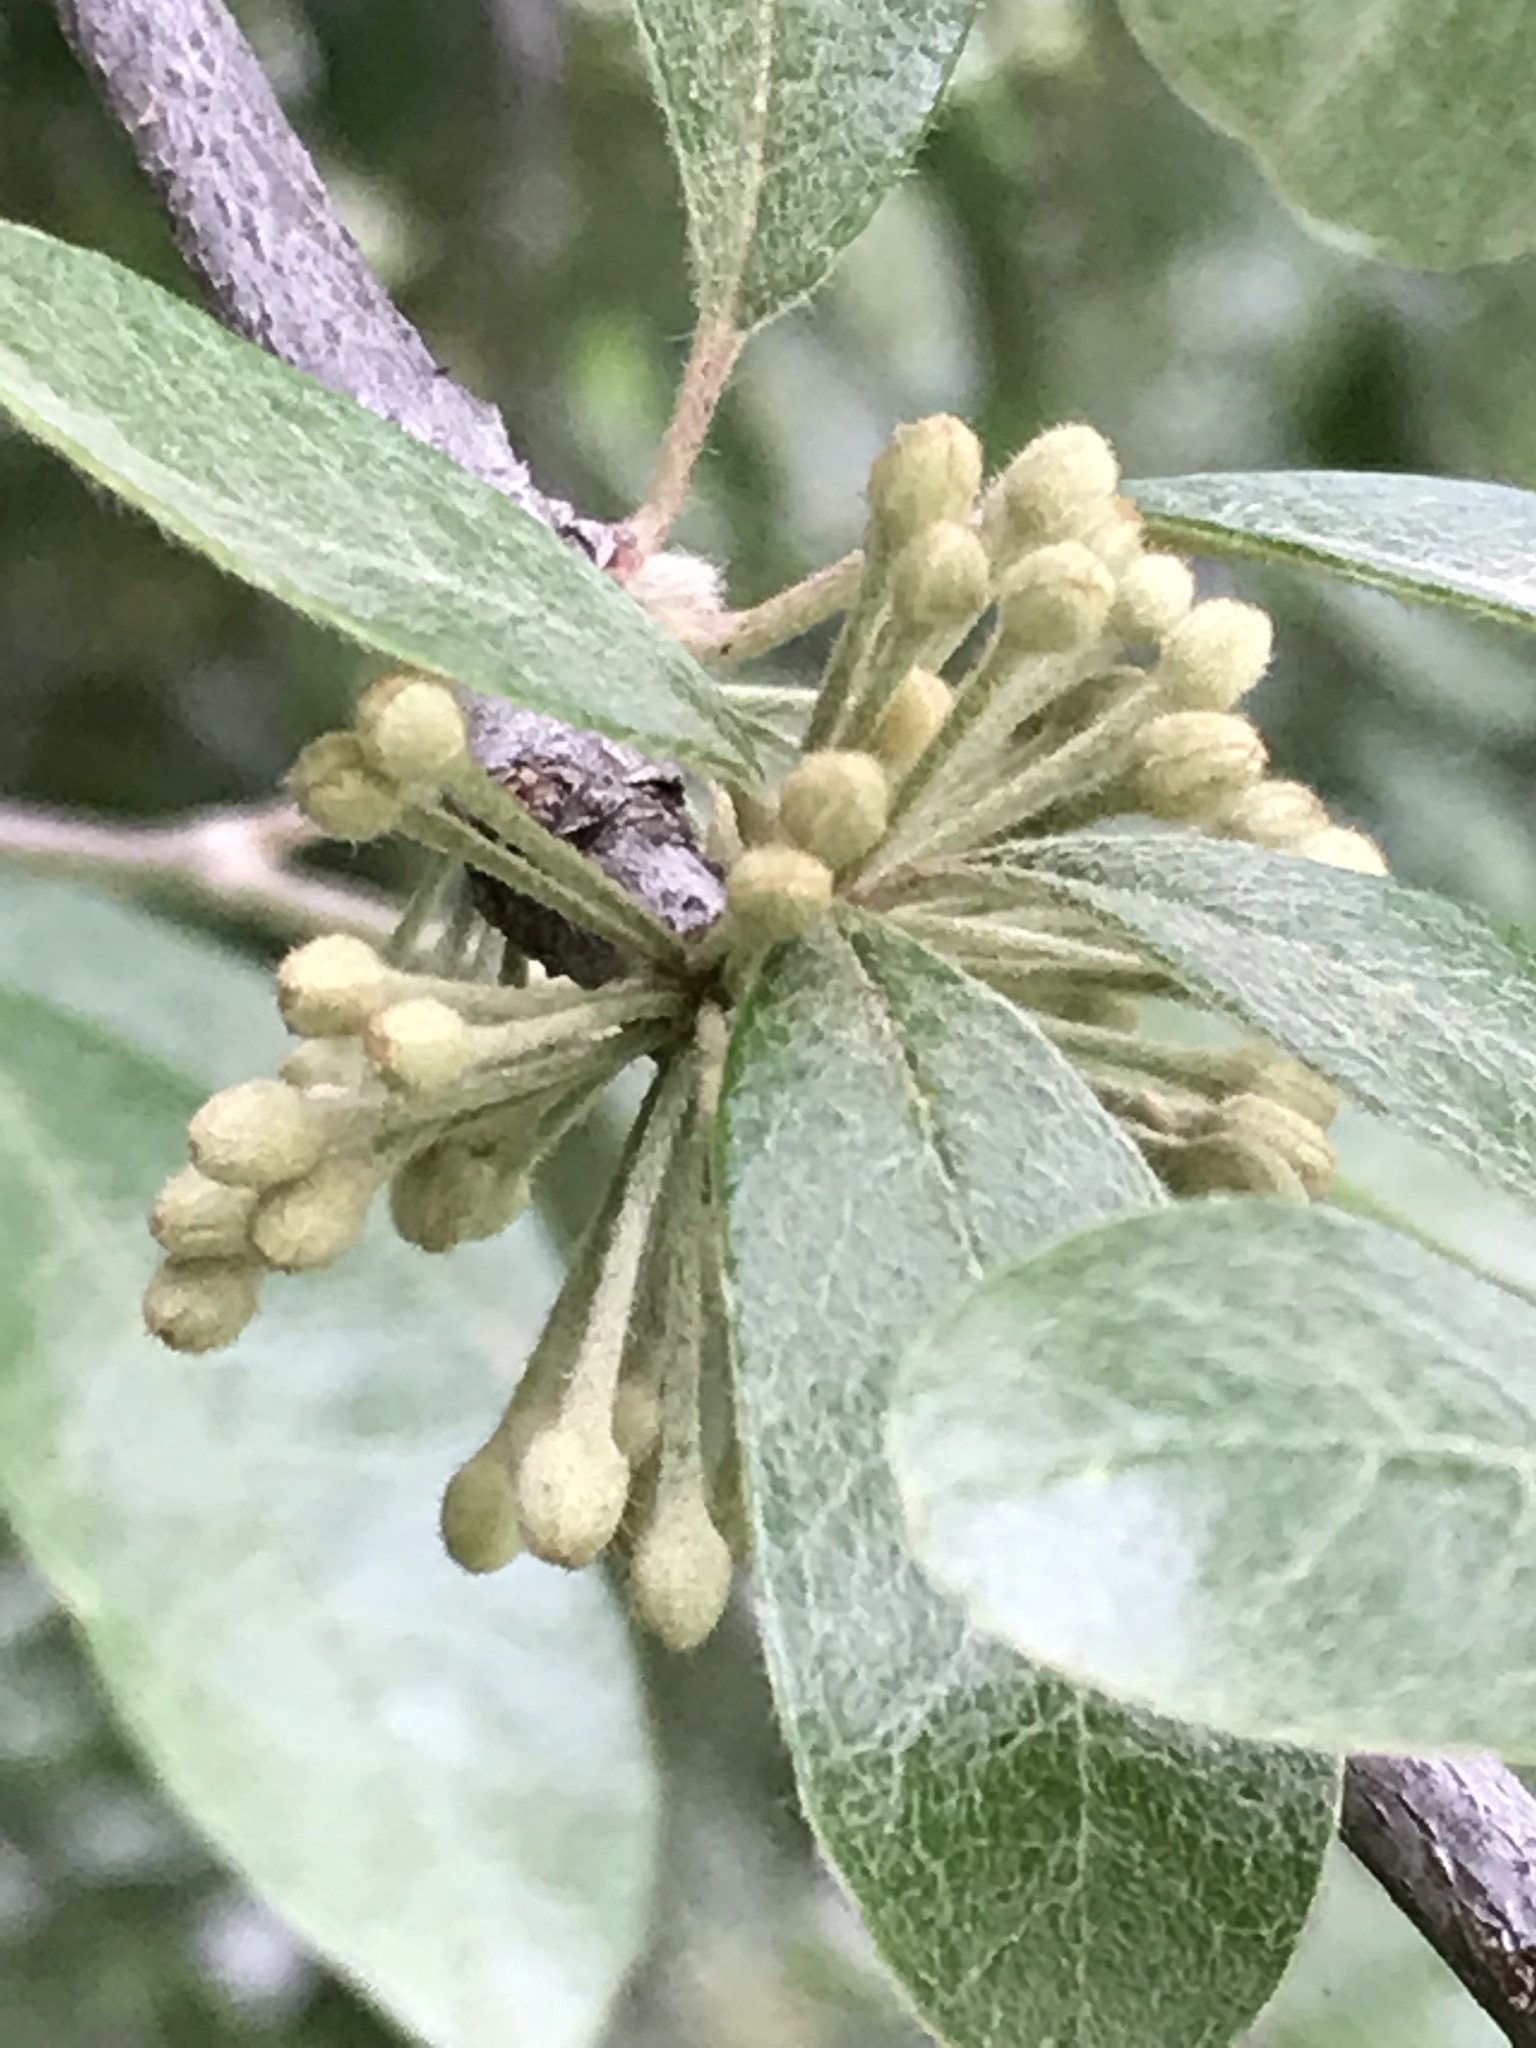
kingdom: Plantae
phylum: Tracheophyta
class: Magnoliopsida
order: Ericales
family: Sapotaceae
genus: Sideroxylon
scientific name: Sideroxylon lanuginosum
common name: Chittamwood
